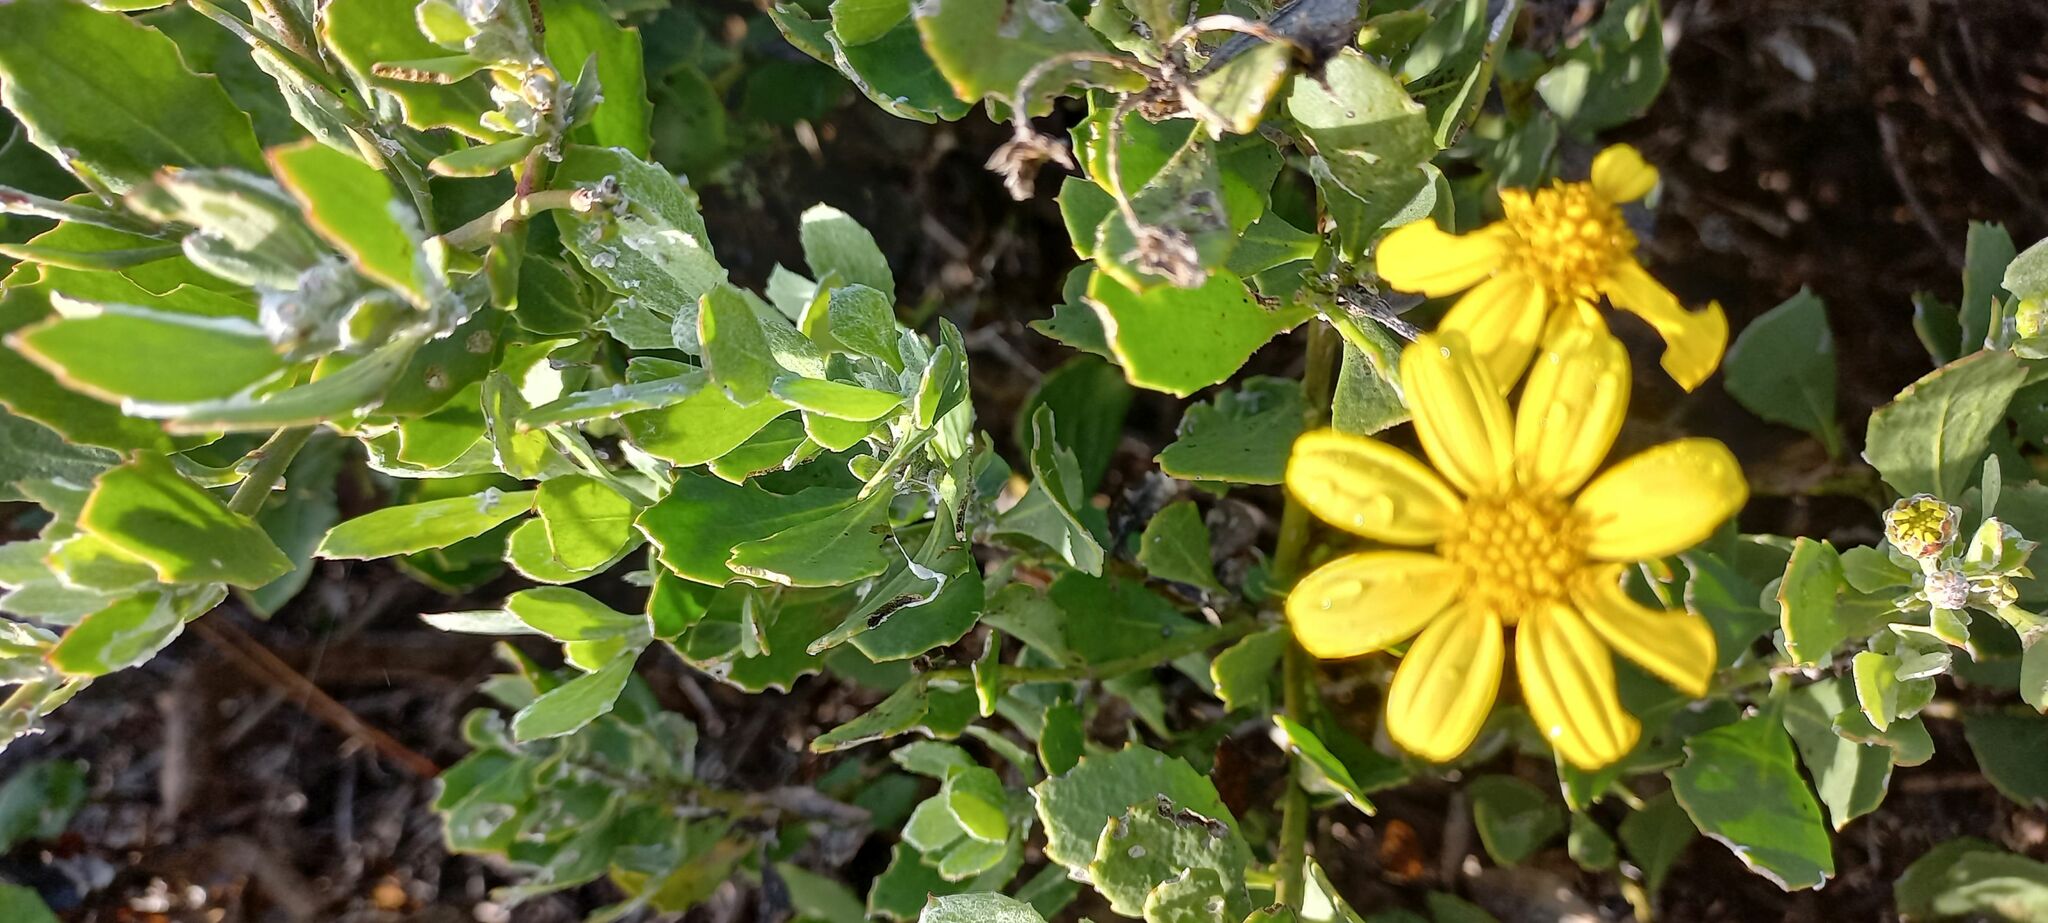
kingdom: Plantae
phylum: Tracheophyta
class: Magnoliopsida
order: Asterales
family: Asteraceae
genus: Osteospermum
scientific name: Osteospermum moniliferum
